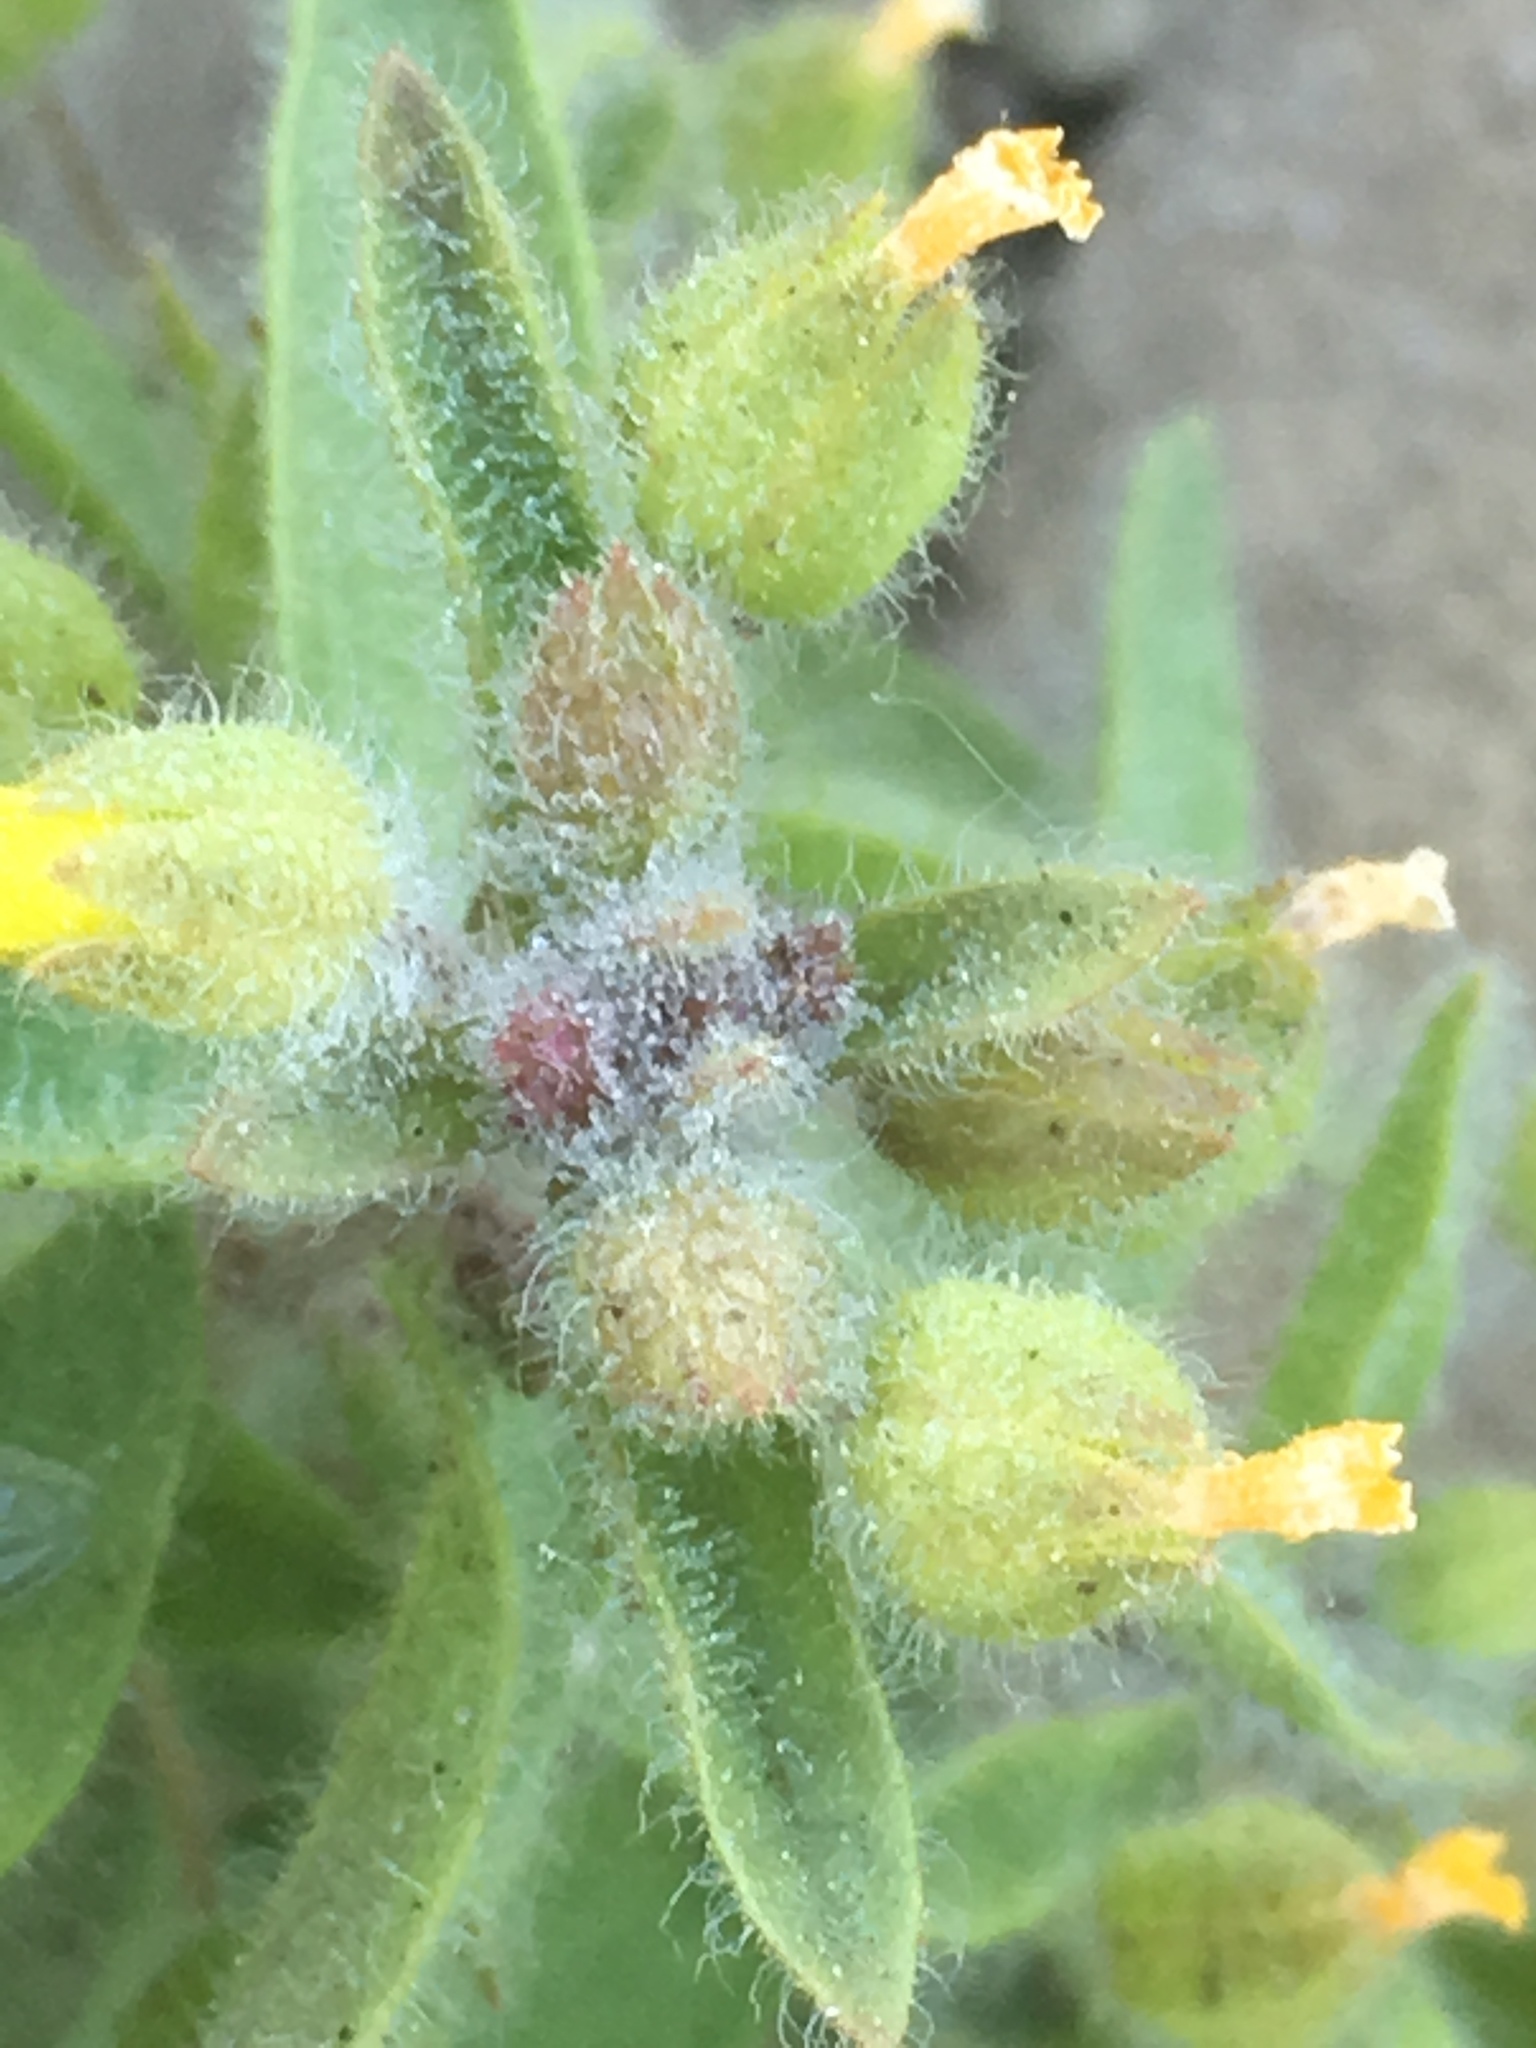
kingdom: Plantae
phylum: Tracheophyta
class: Magnoliopsida
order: Lamiales
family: Phrymaceae
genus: Mimetanthe
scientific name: Mimetanthe pilosa
